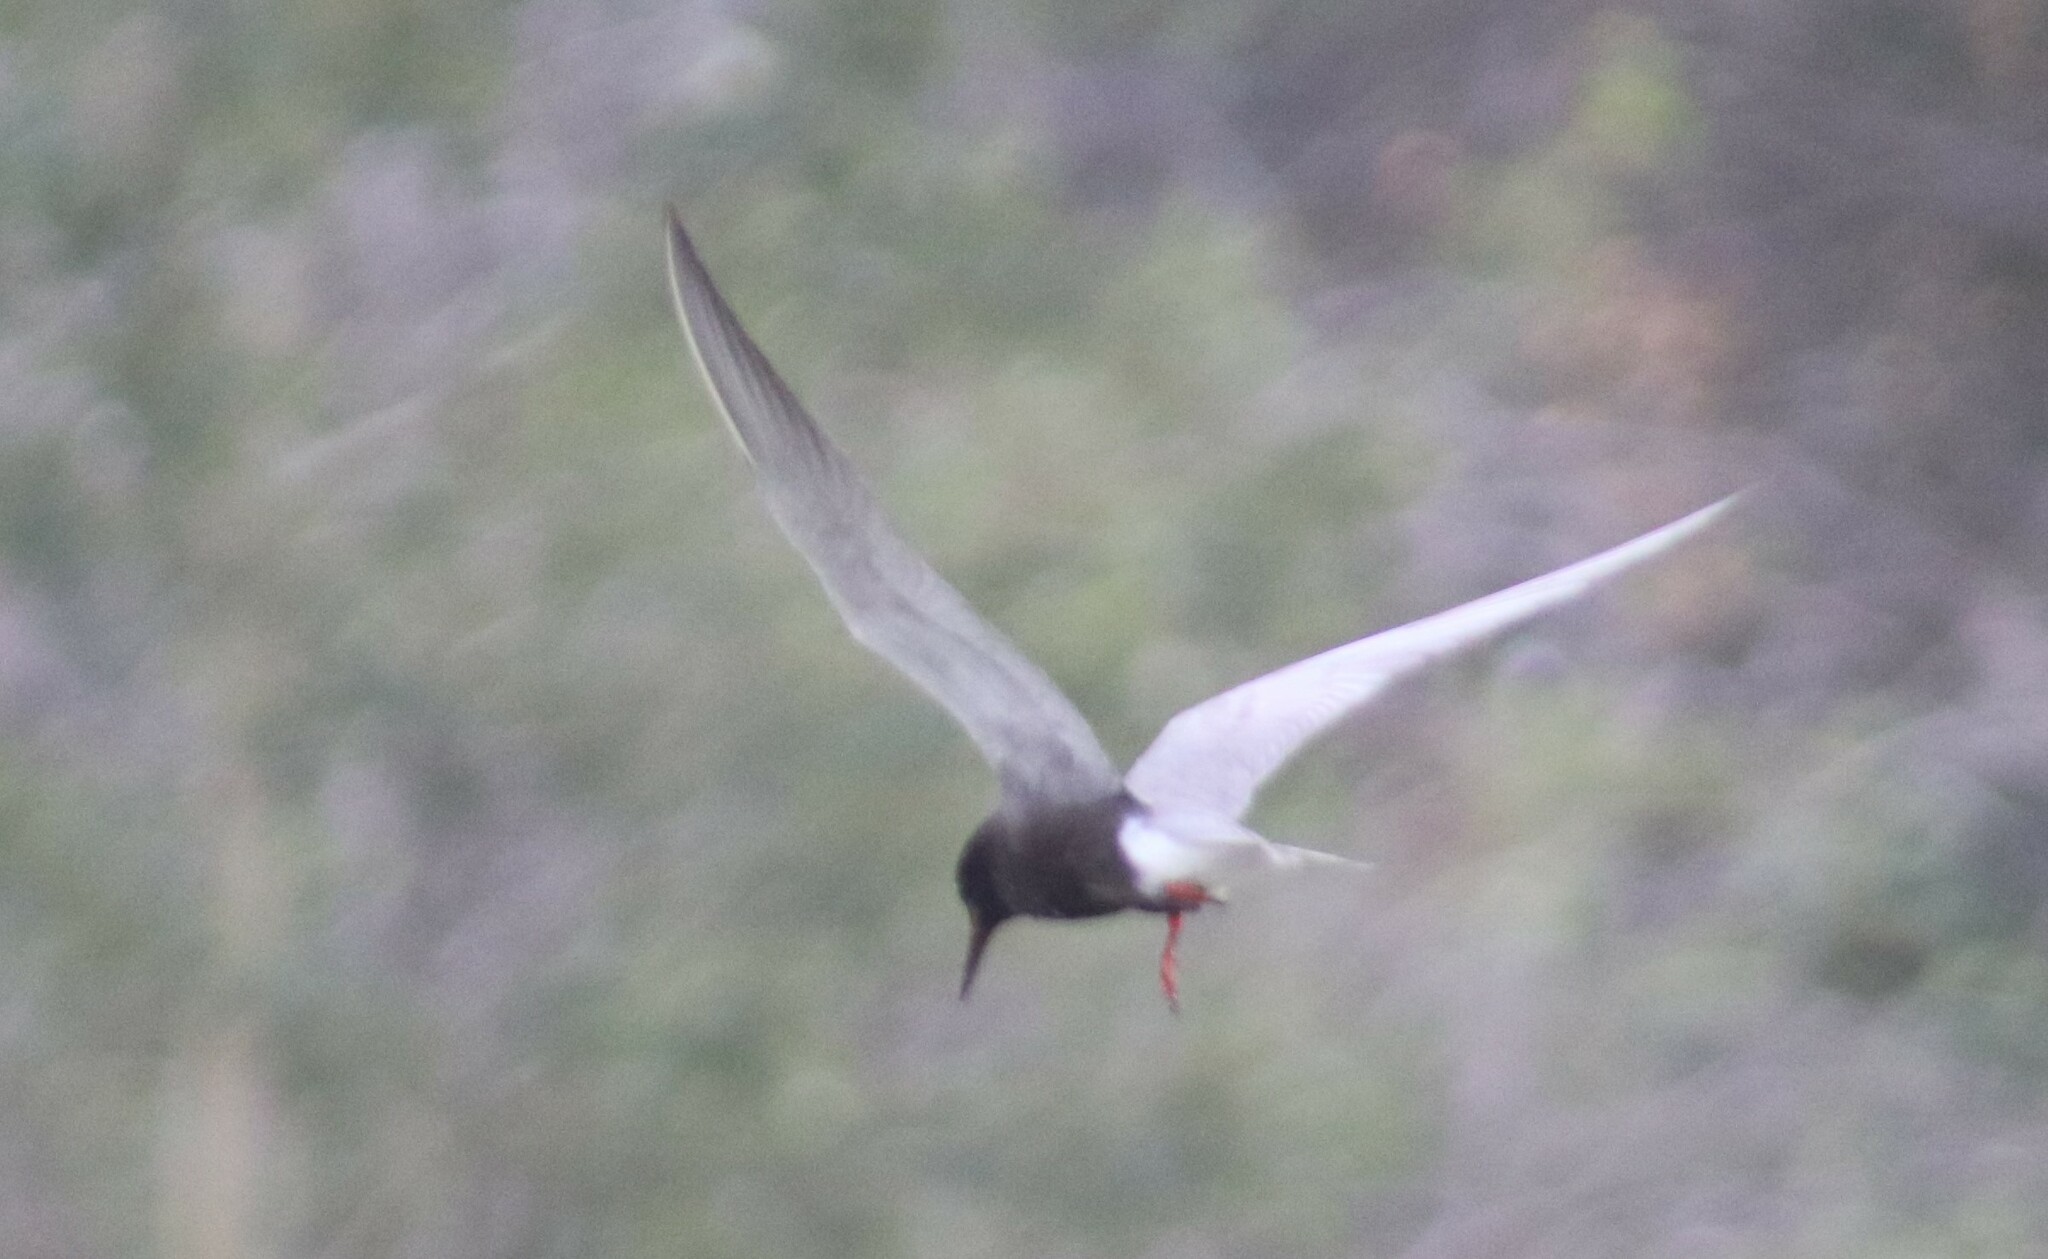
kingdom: Animalia
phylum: Chordata
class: Aves
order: Charadriiformes
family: Laridae
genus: Chlidonias
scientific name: Chlidonias niger
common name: Black tern
